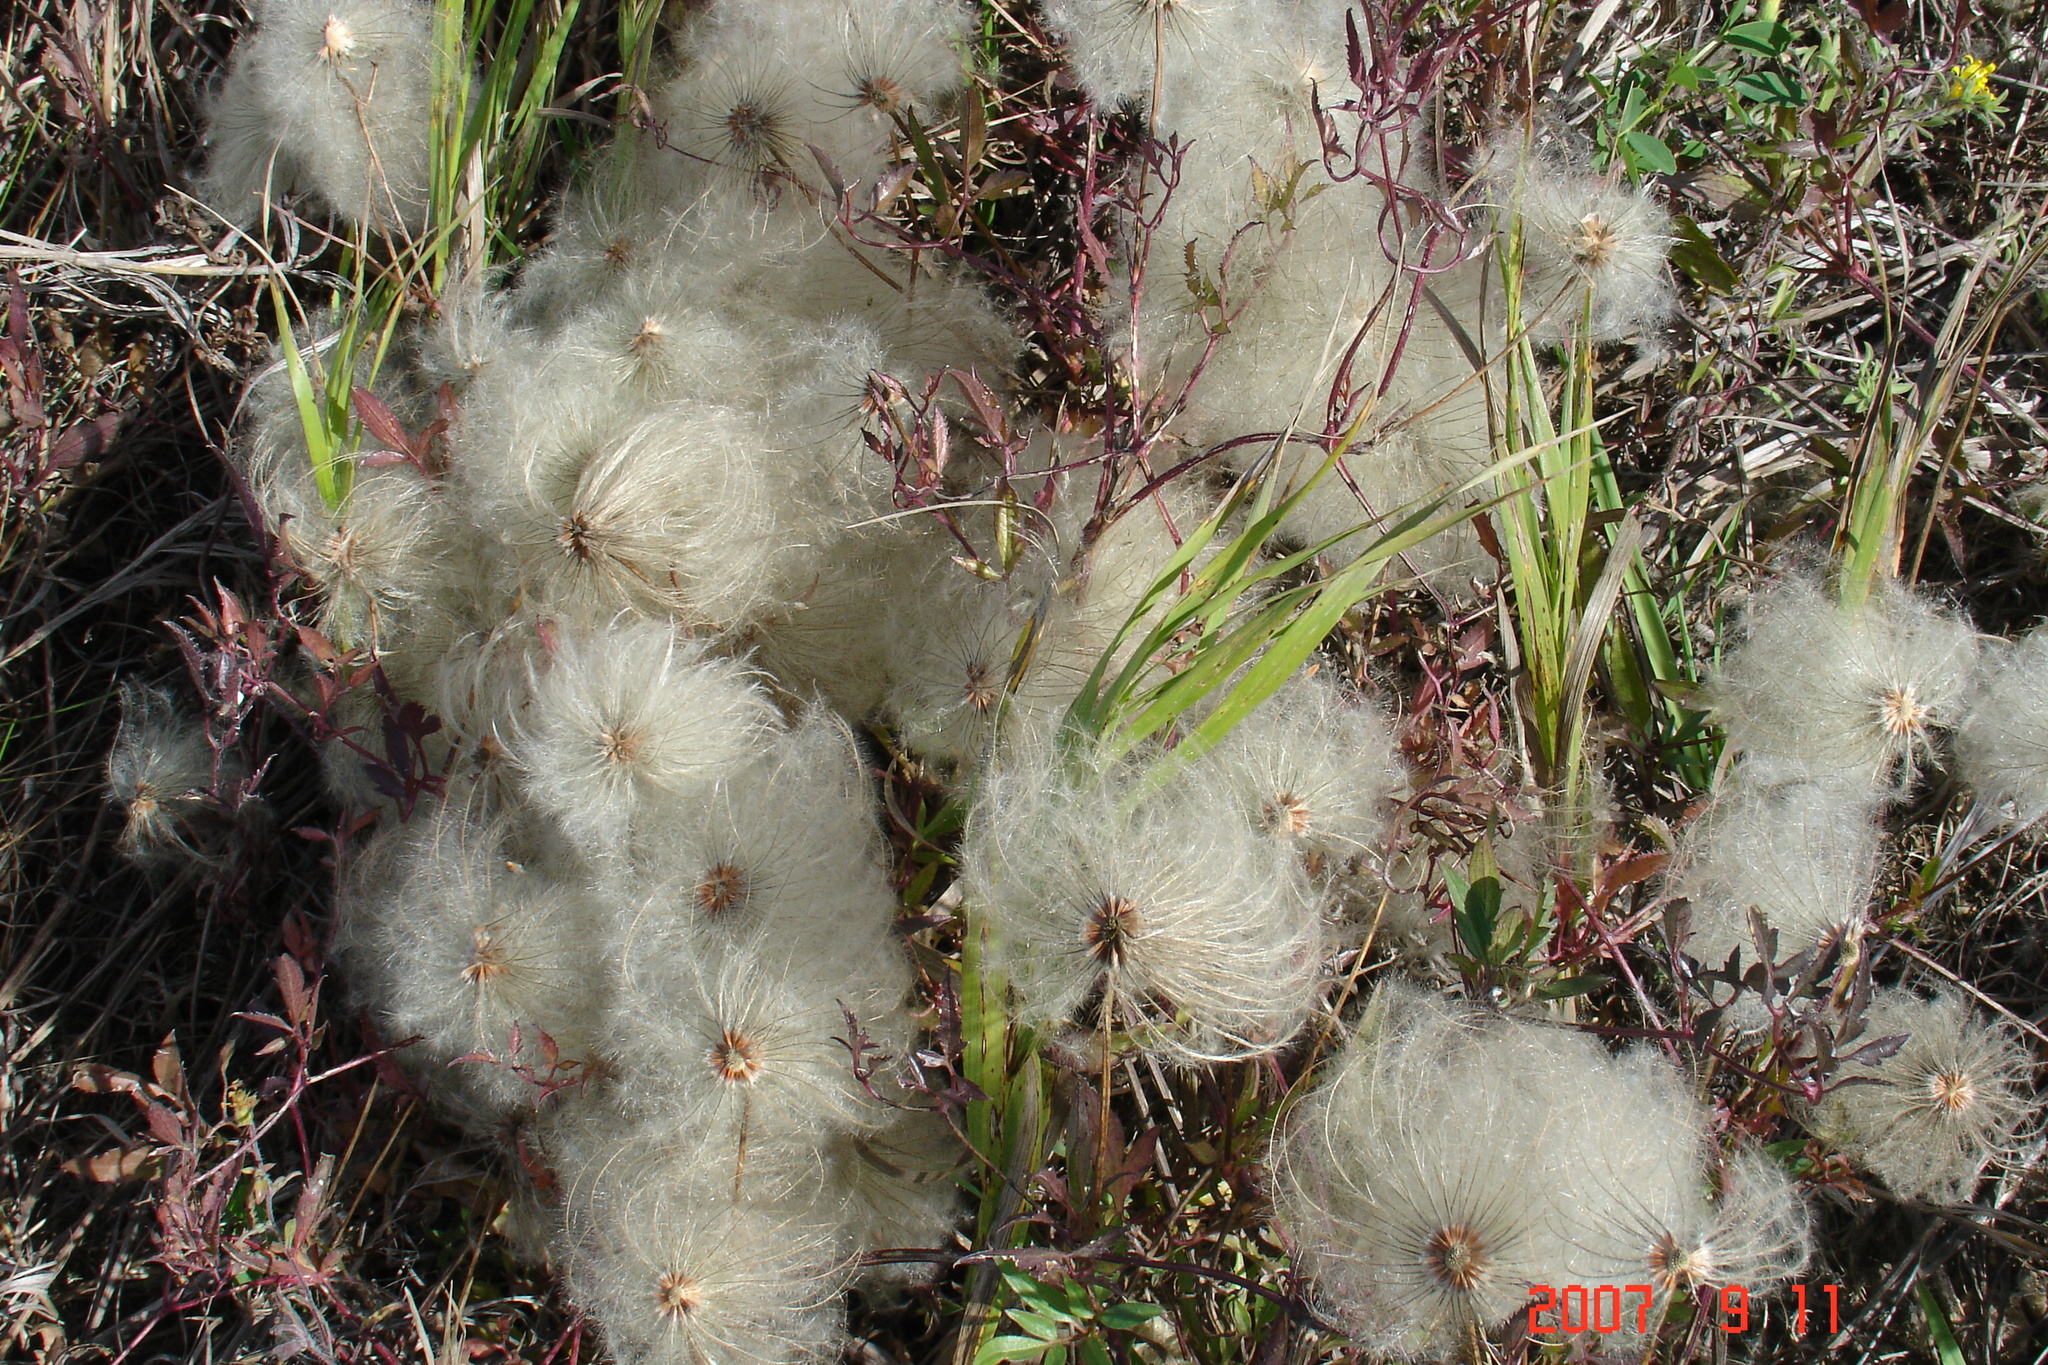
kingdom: Plantae
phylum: Tracheophyta
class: Magnoliopsida
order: Ranunculales
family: Ranunculaceae
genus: Clematis
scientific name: Clematis tangutica
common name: Orange-peel clematis
